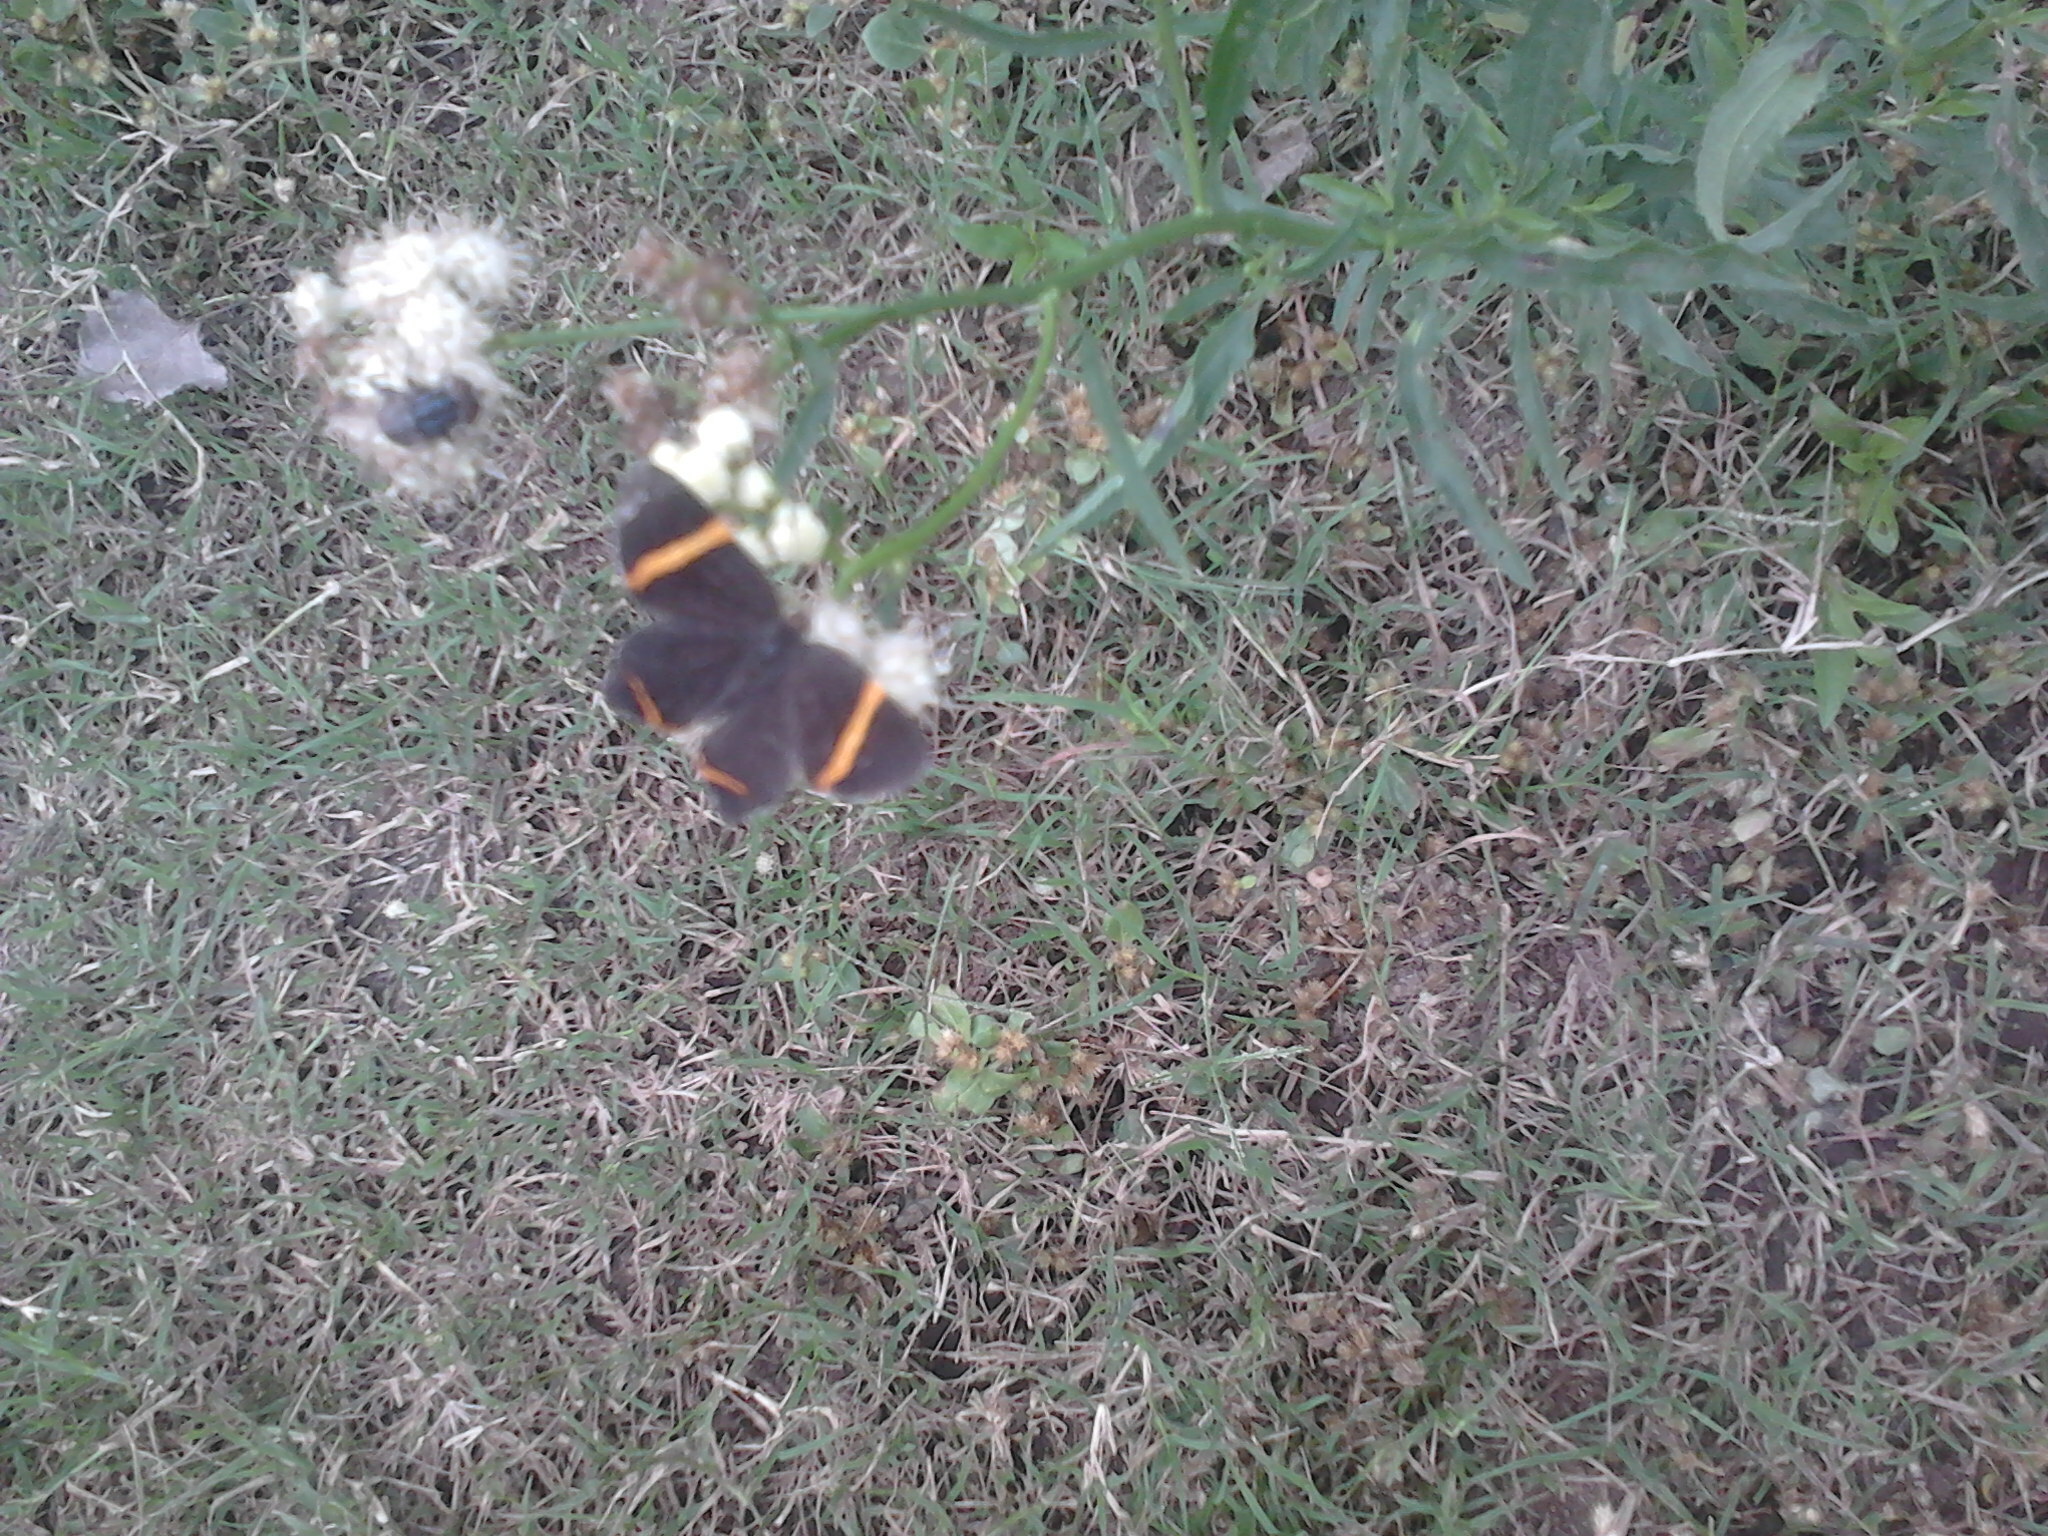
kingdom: Animalia
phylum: Arthropoda
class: Insecta
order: Lepidoptera
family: Riodinidae
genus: Riodina
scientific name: Riodina lysippoides
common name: Little dancer metalmark
